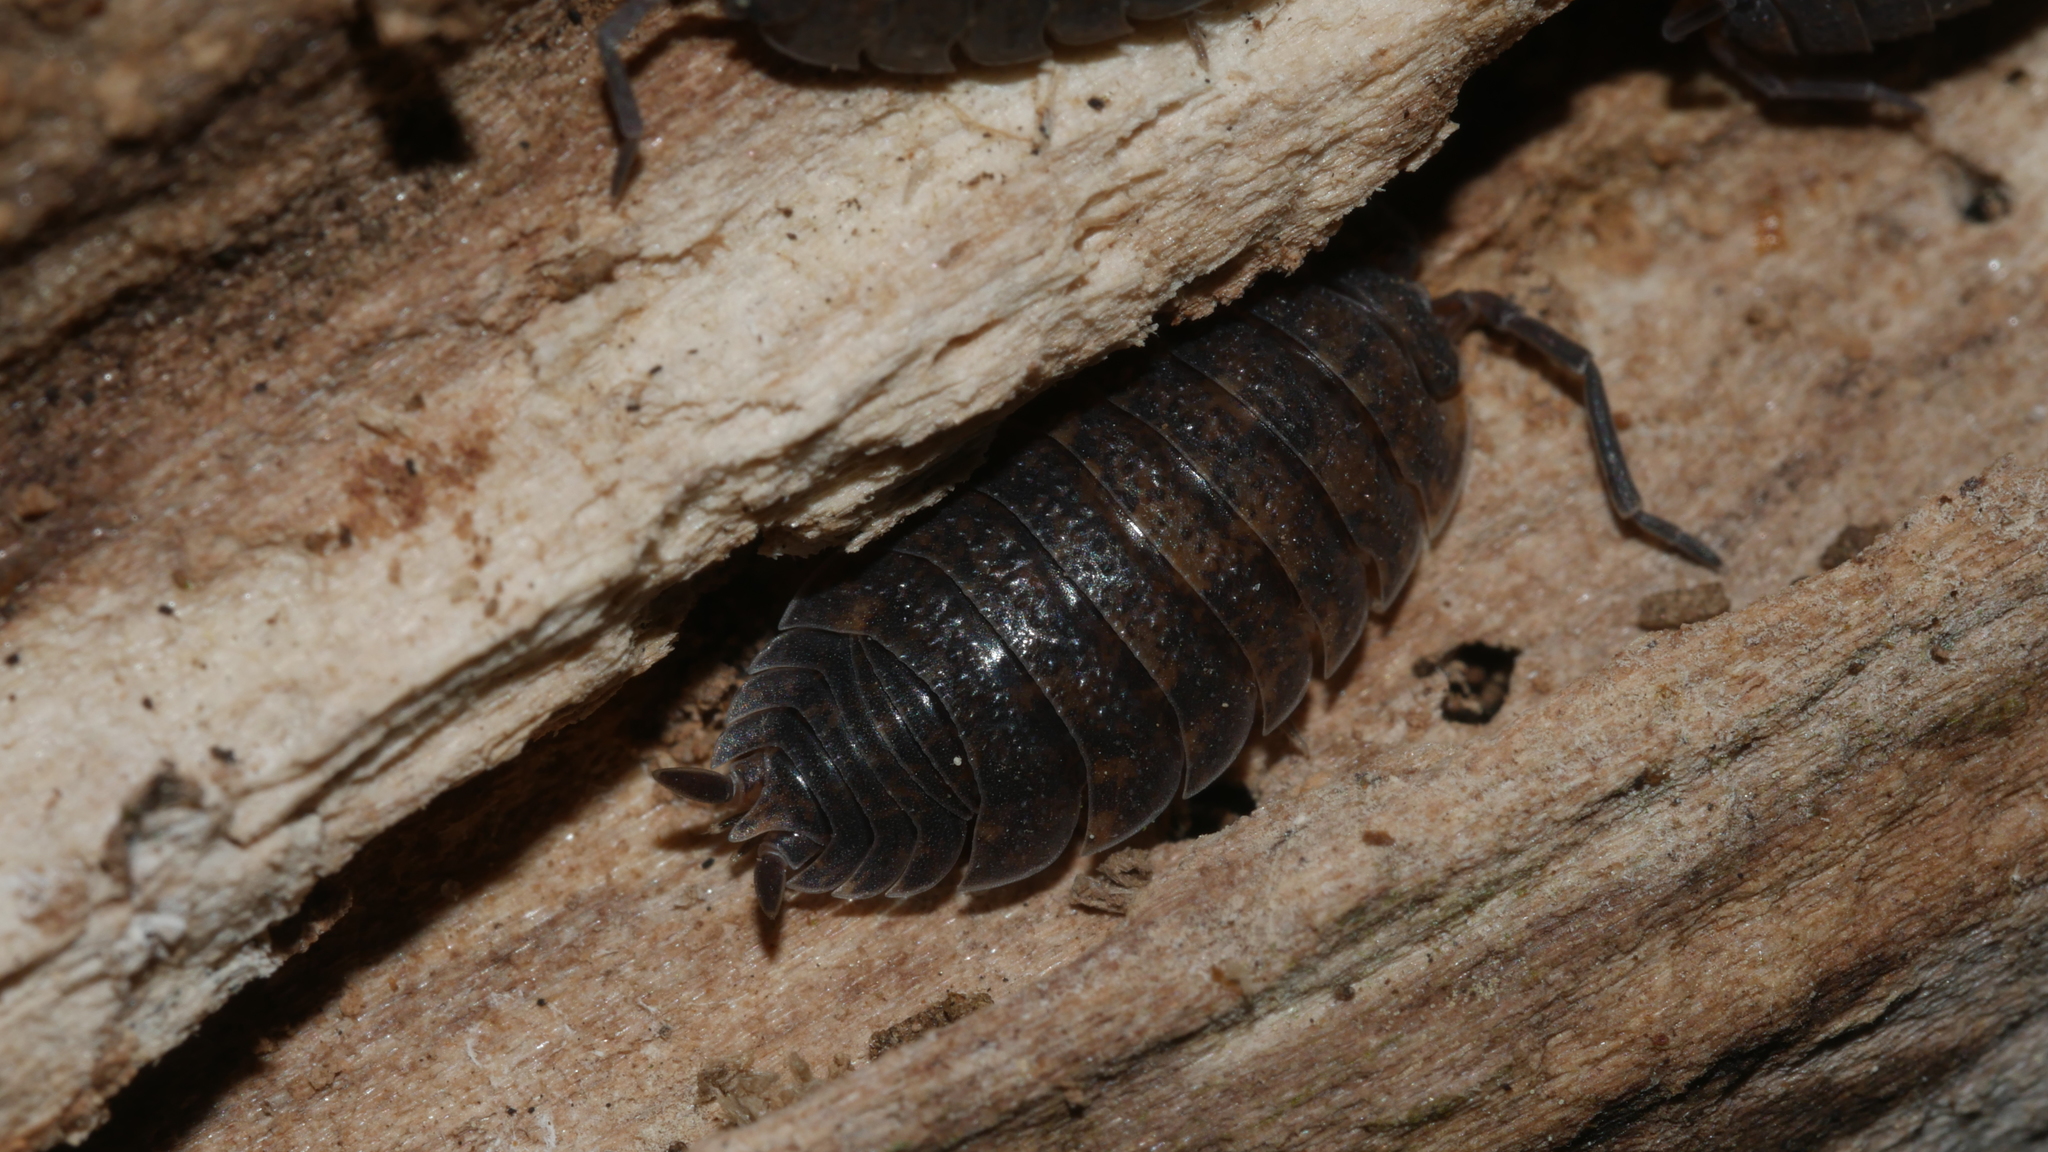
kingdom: Animalia
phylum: Arthropoda
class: Malacostraca
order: Isopoda
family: Porcellionidae
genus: Porcellio
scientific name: Porcellio scaber
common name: Common rough woodlouse
